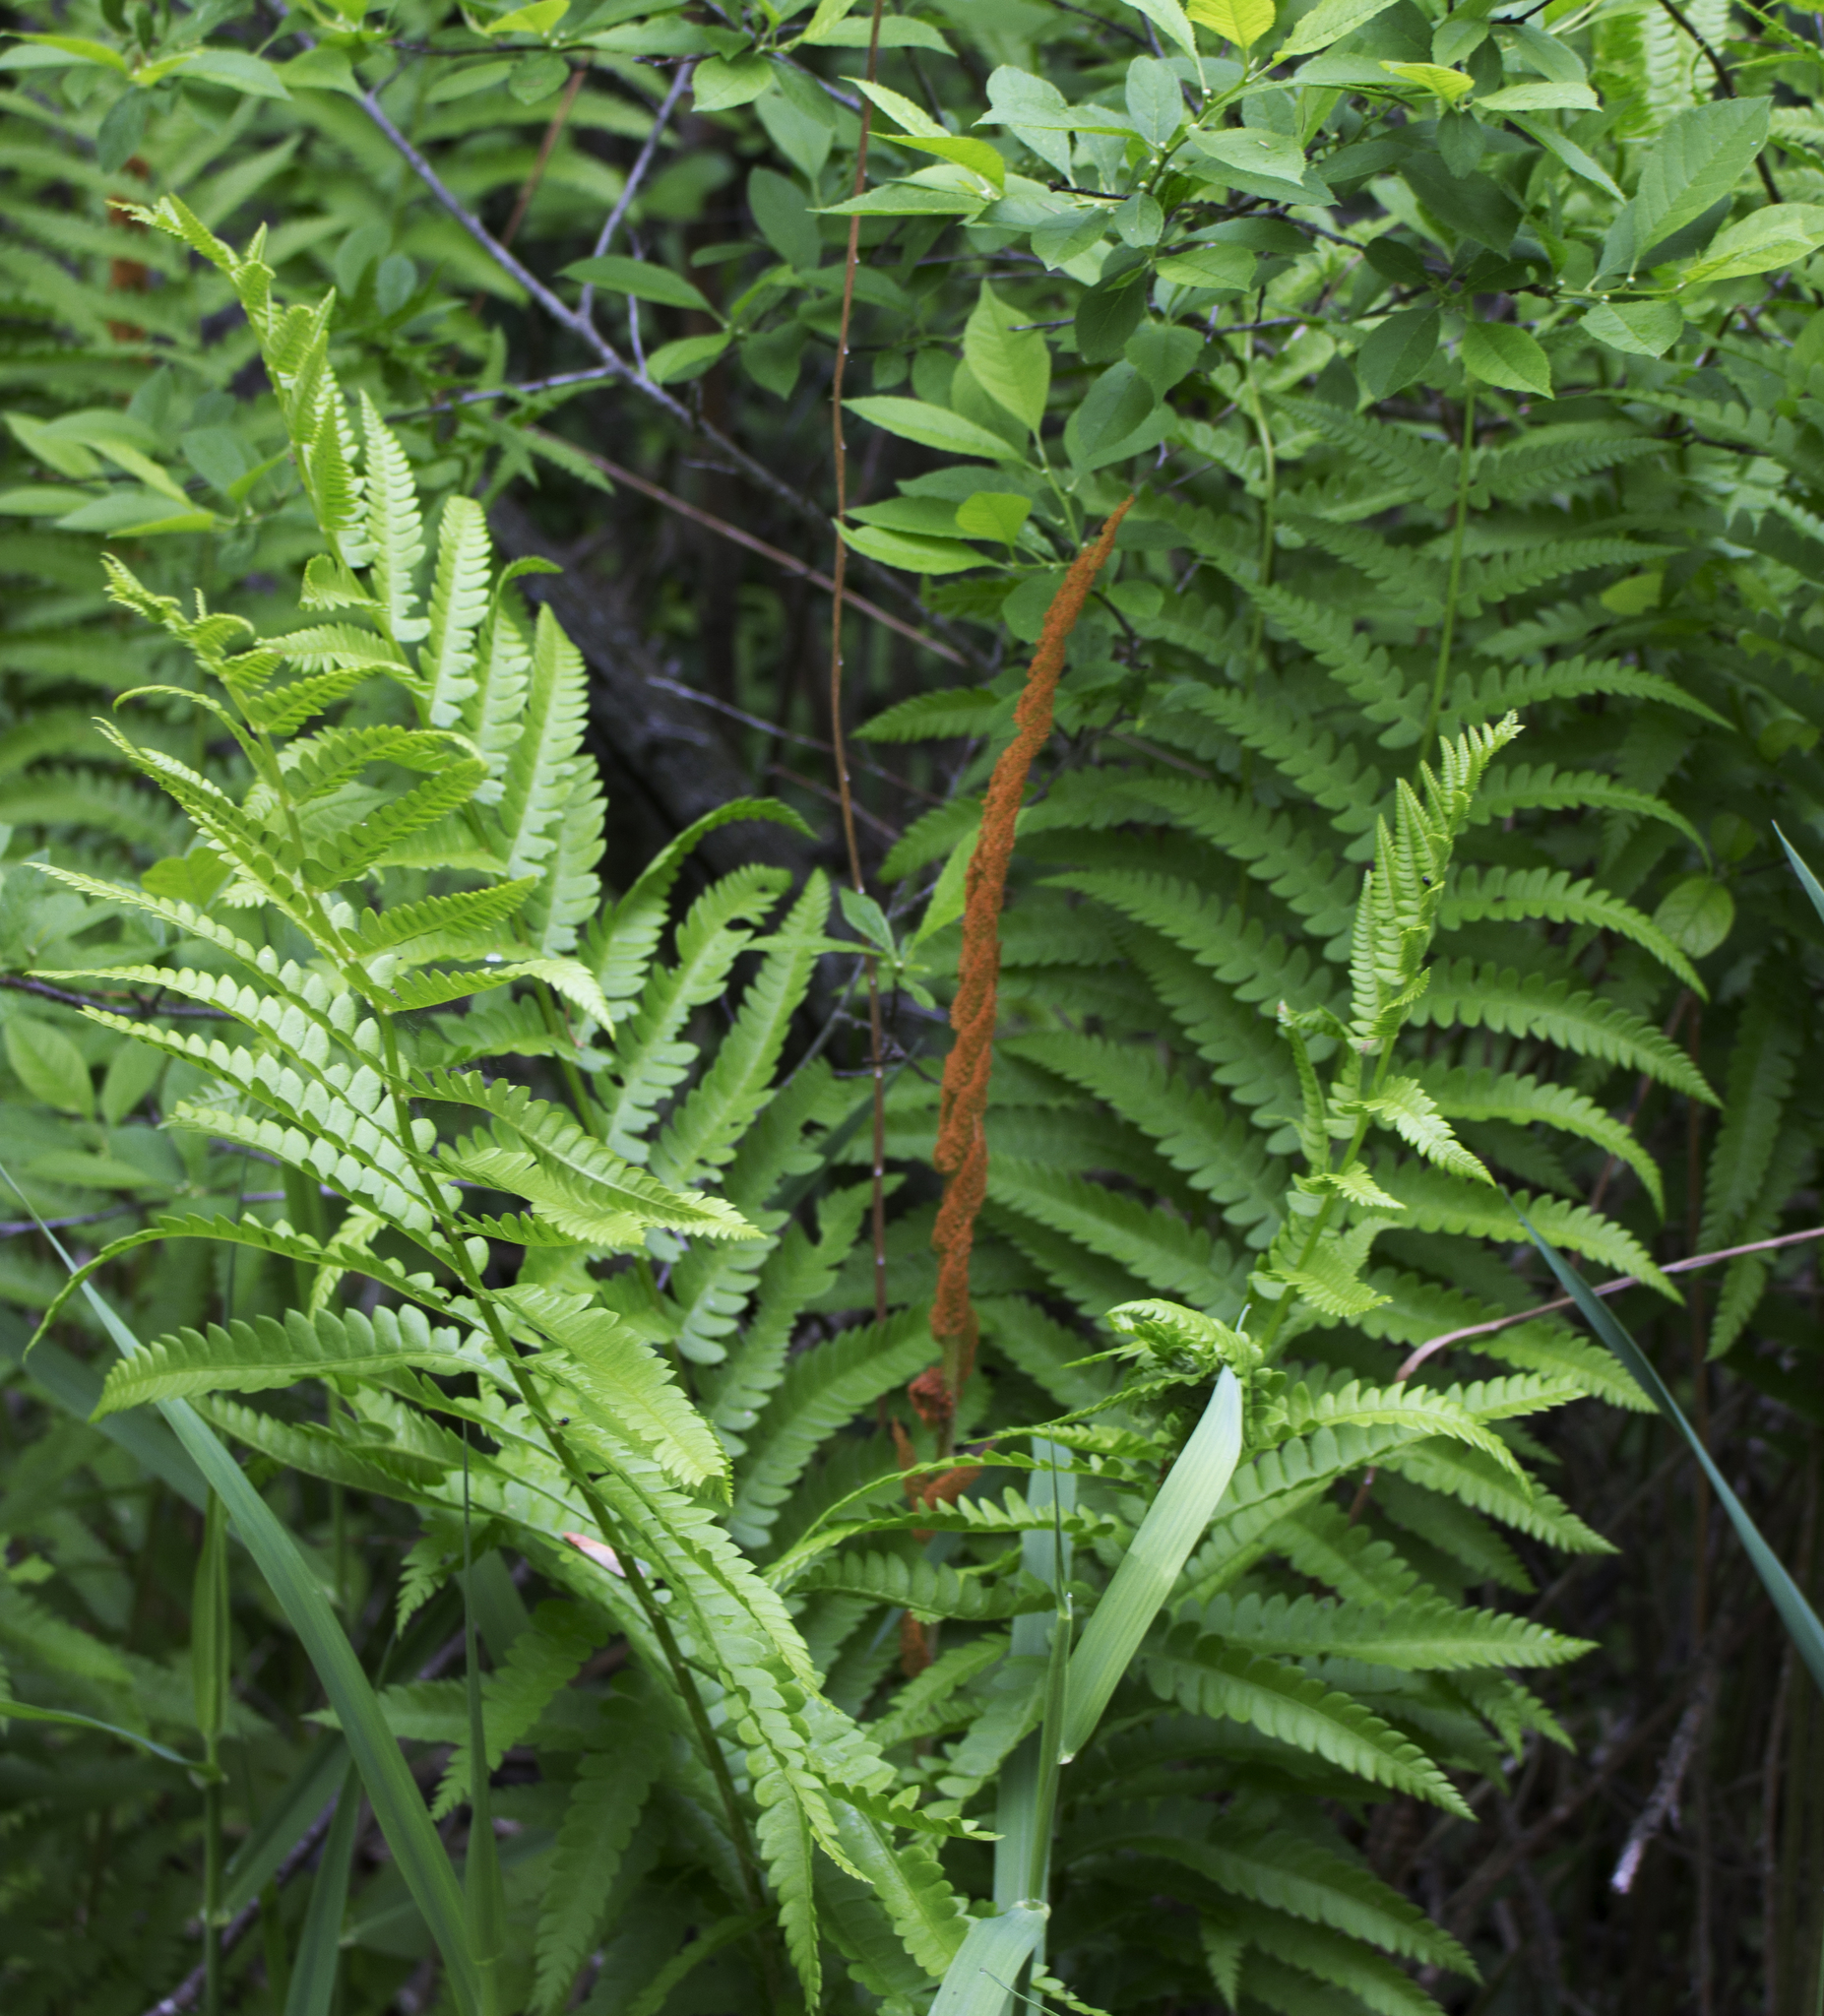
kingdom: Plantae
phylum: Tracheophyta
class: Polypodiopsida
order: Osmundales
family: Osmundaceae
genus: Osmundastrum
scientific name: Osmundastrum cinnamomeum
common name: Cinnamon fern
